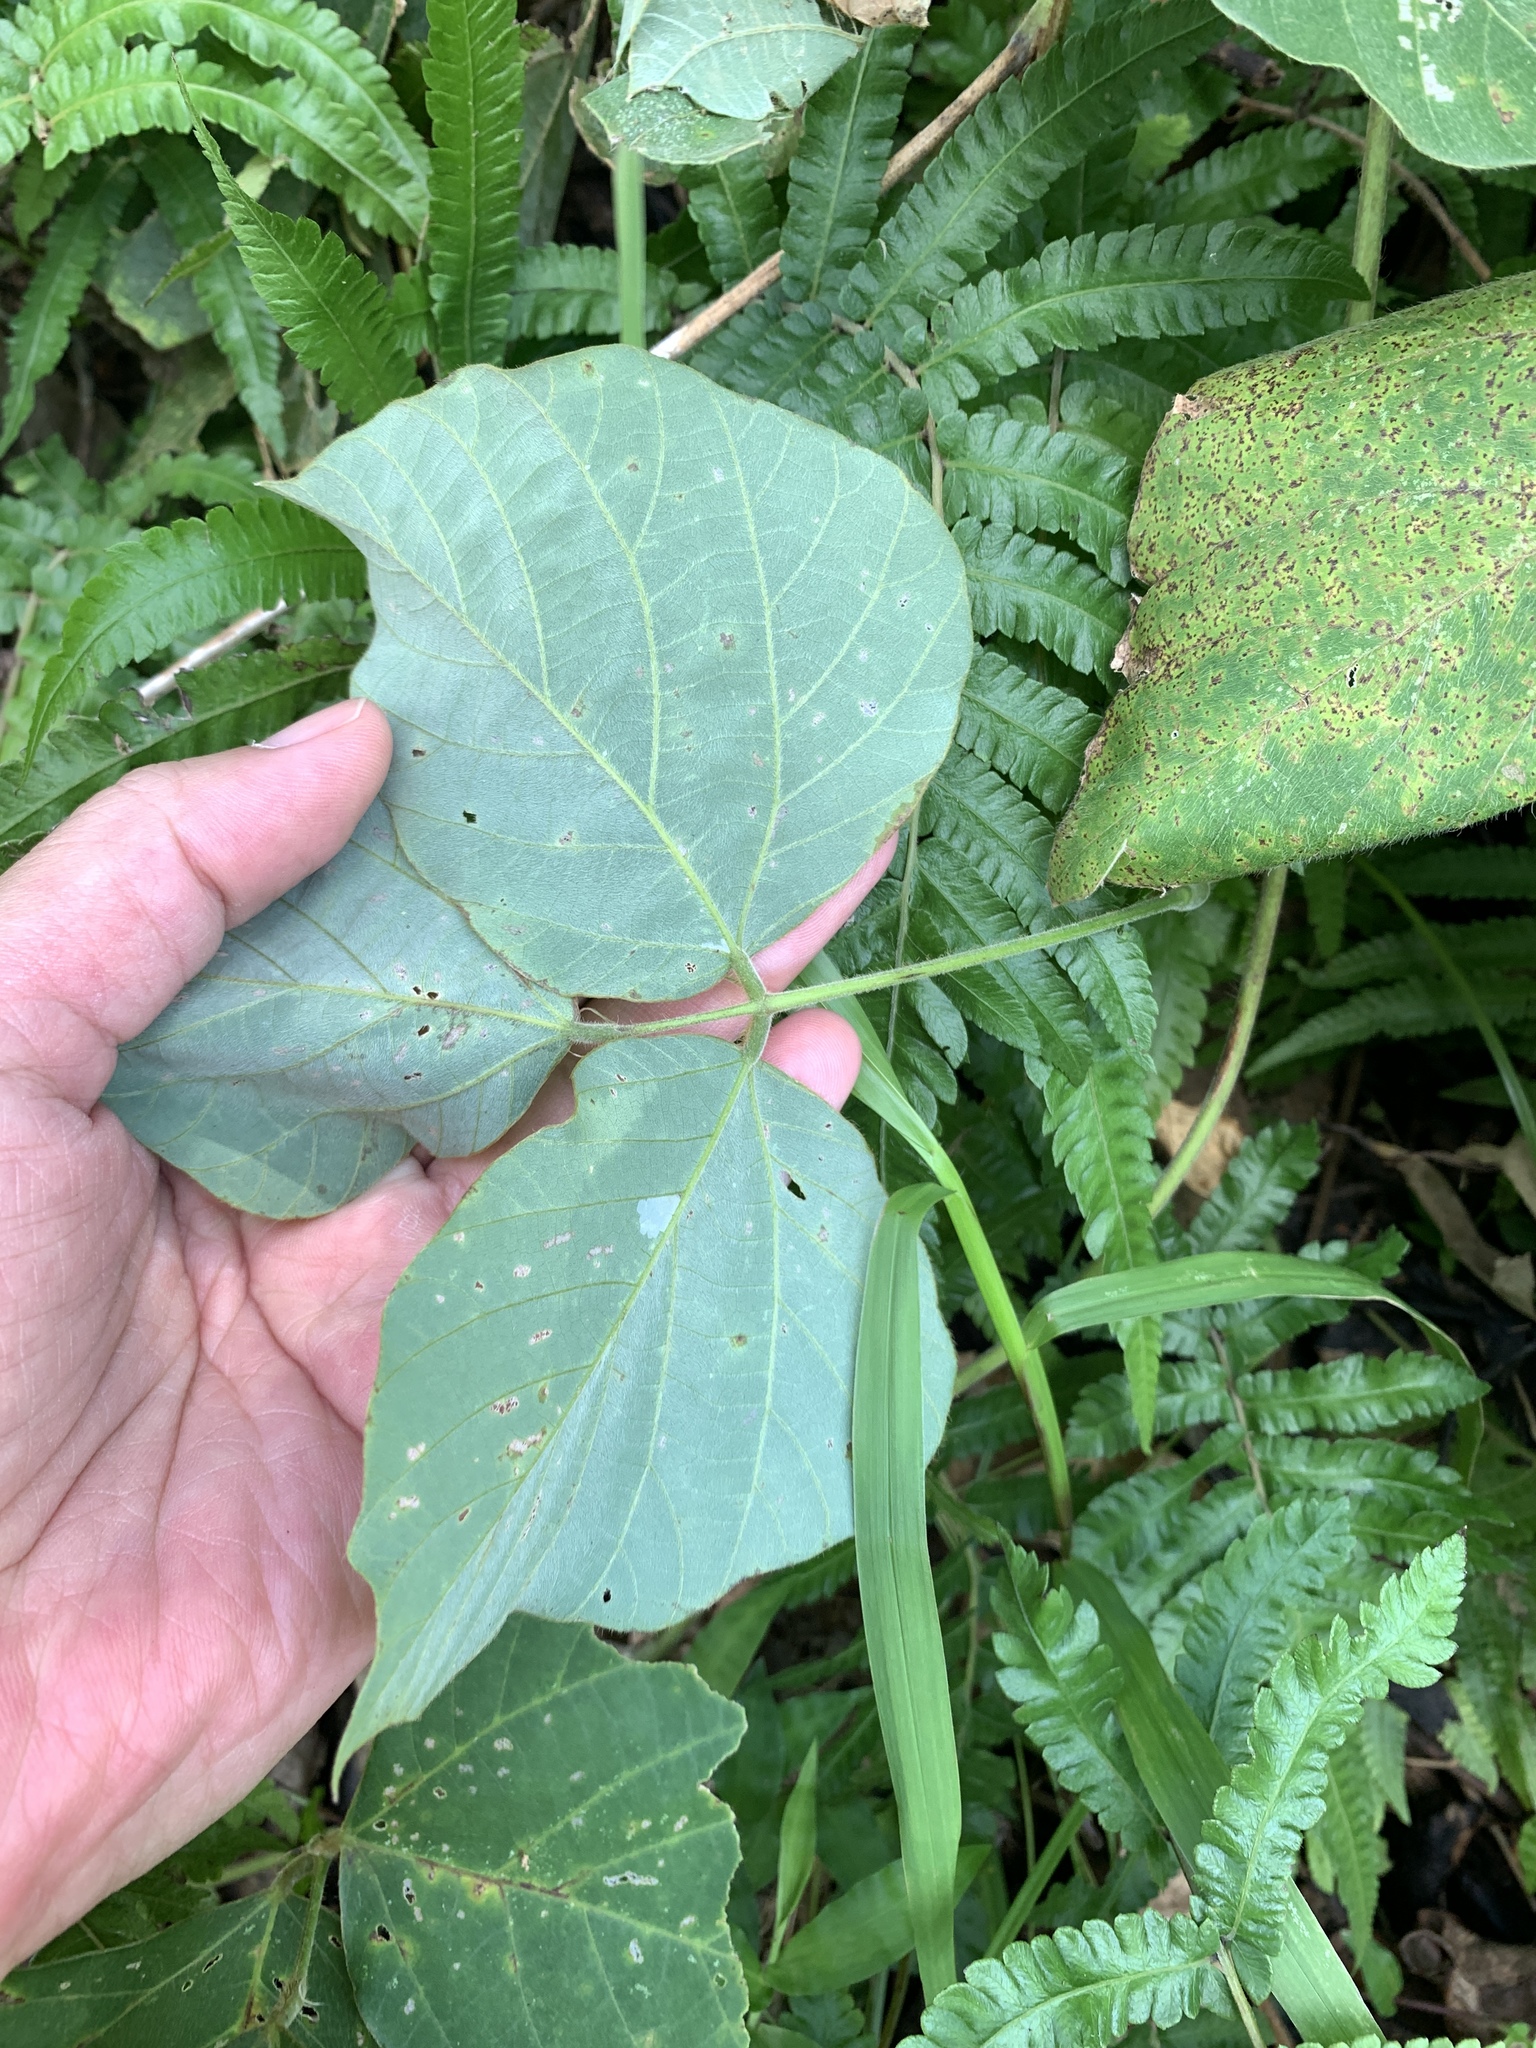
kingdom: Plantae
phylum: Tracheophyta
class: Magnoliopsida
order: Fabales
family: Fabaceae
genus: Pueraria
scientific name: Pueraria montana
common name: Kudzu
